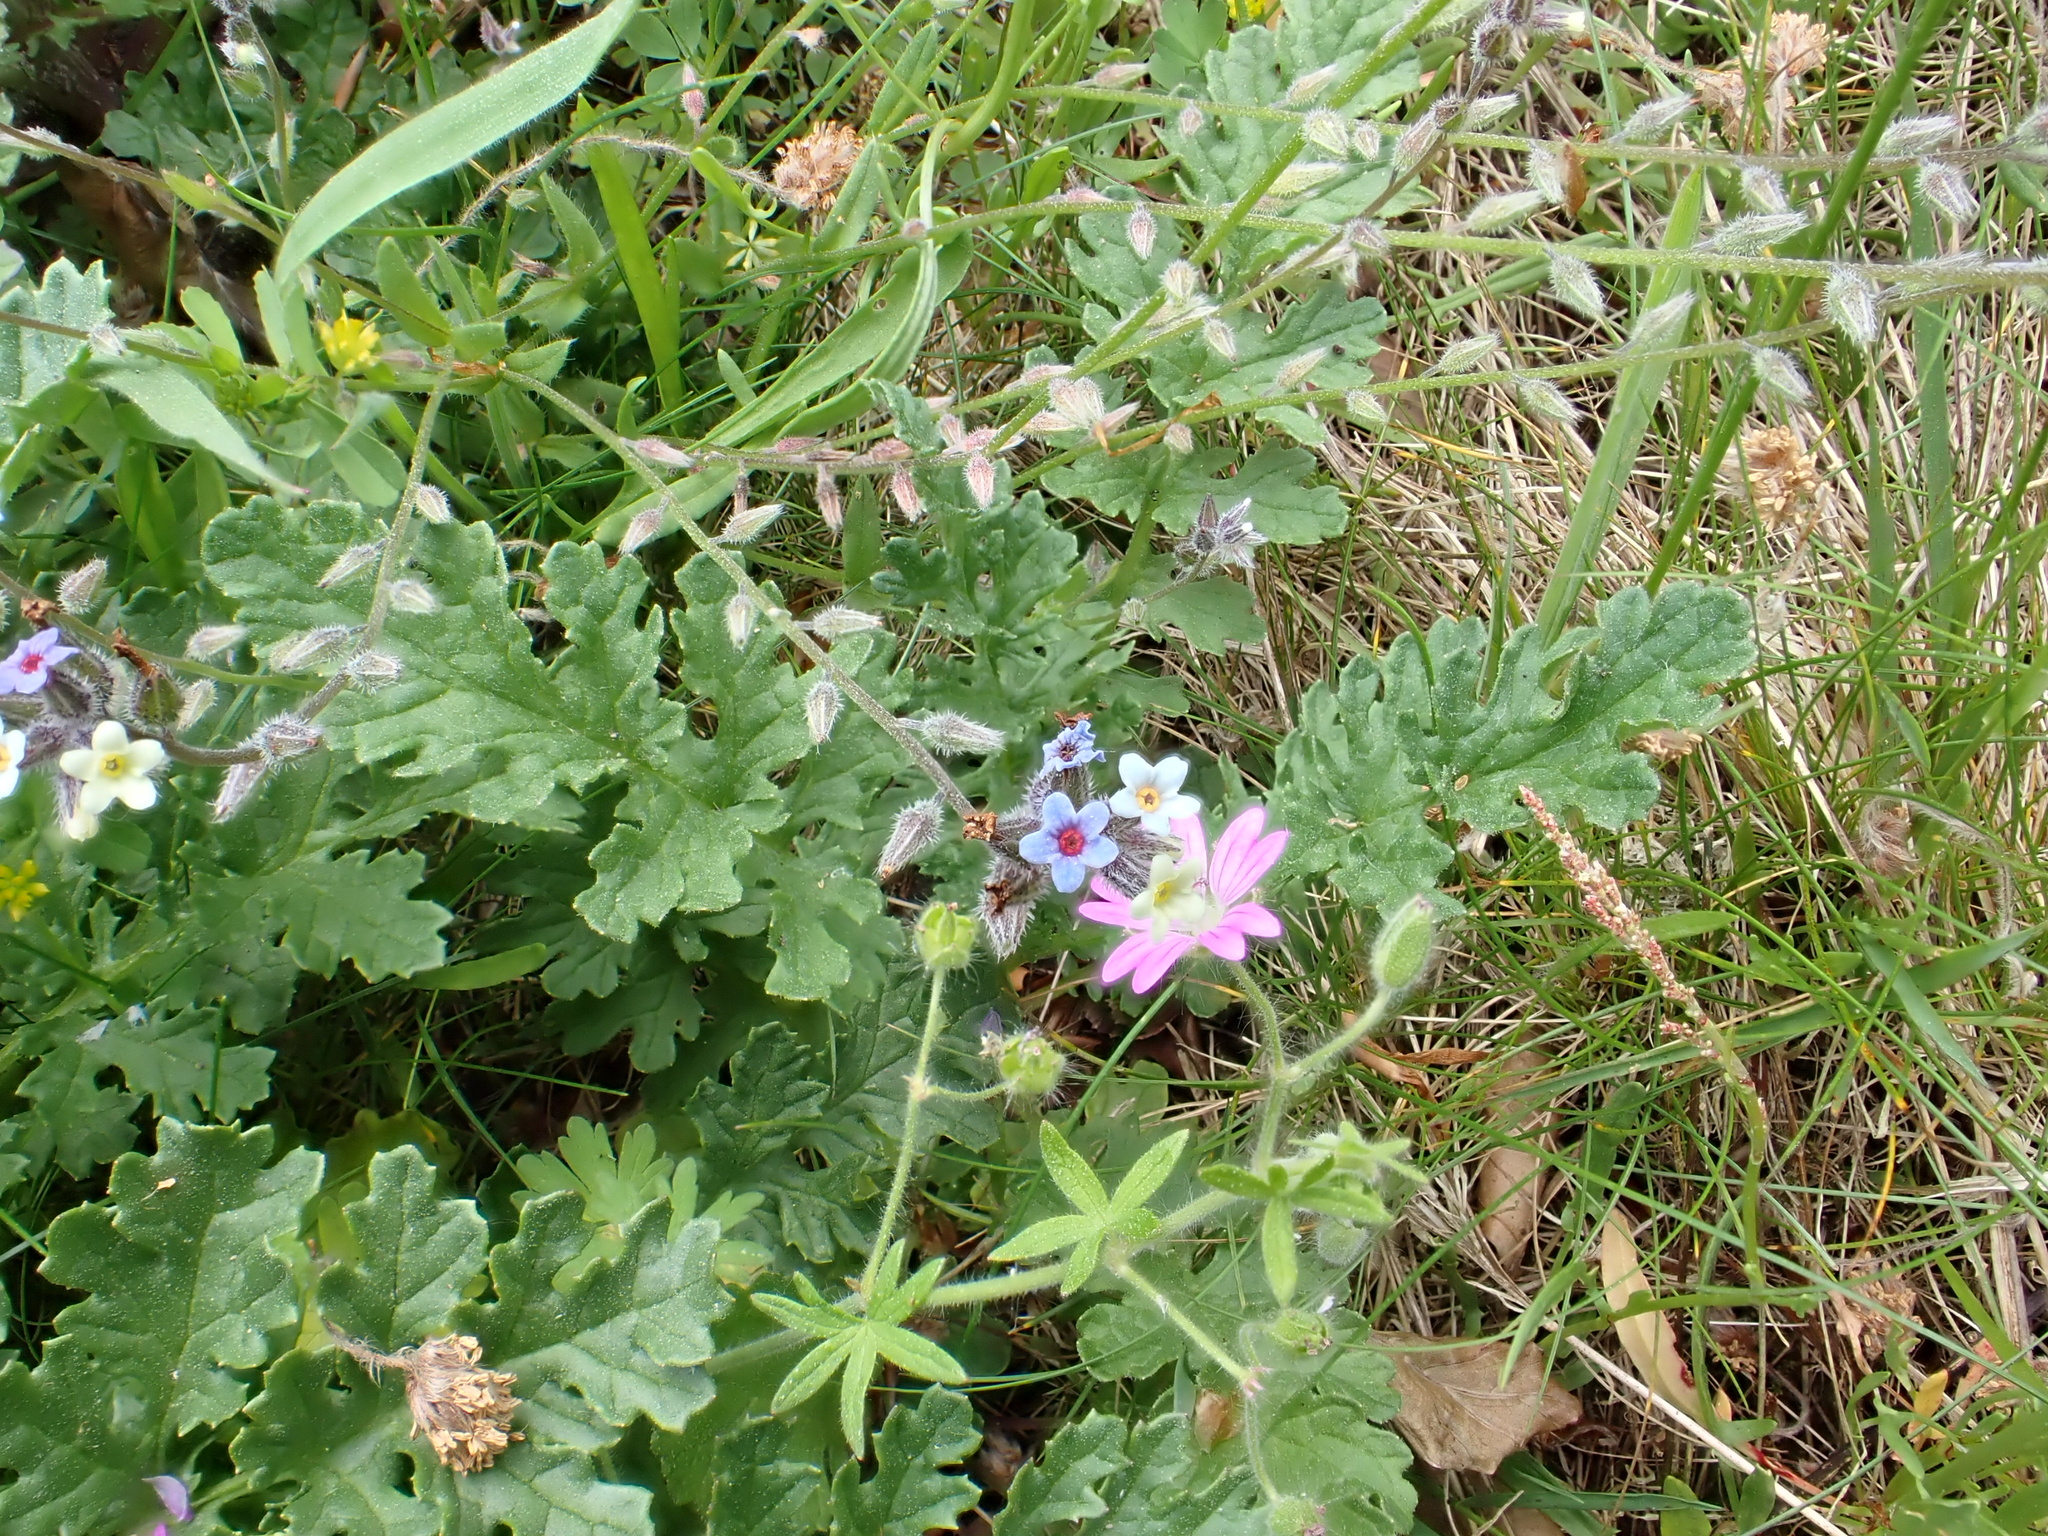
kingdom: Plantae
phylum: Tracheophyta
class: Magnoliopsida
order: Boraginales
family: Boraginaceae
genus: Myosotis
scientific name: Myosotis discolor
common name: Changing forget-me-not
